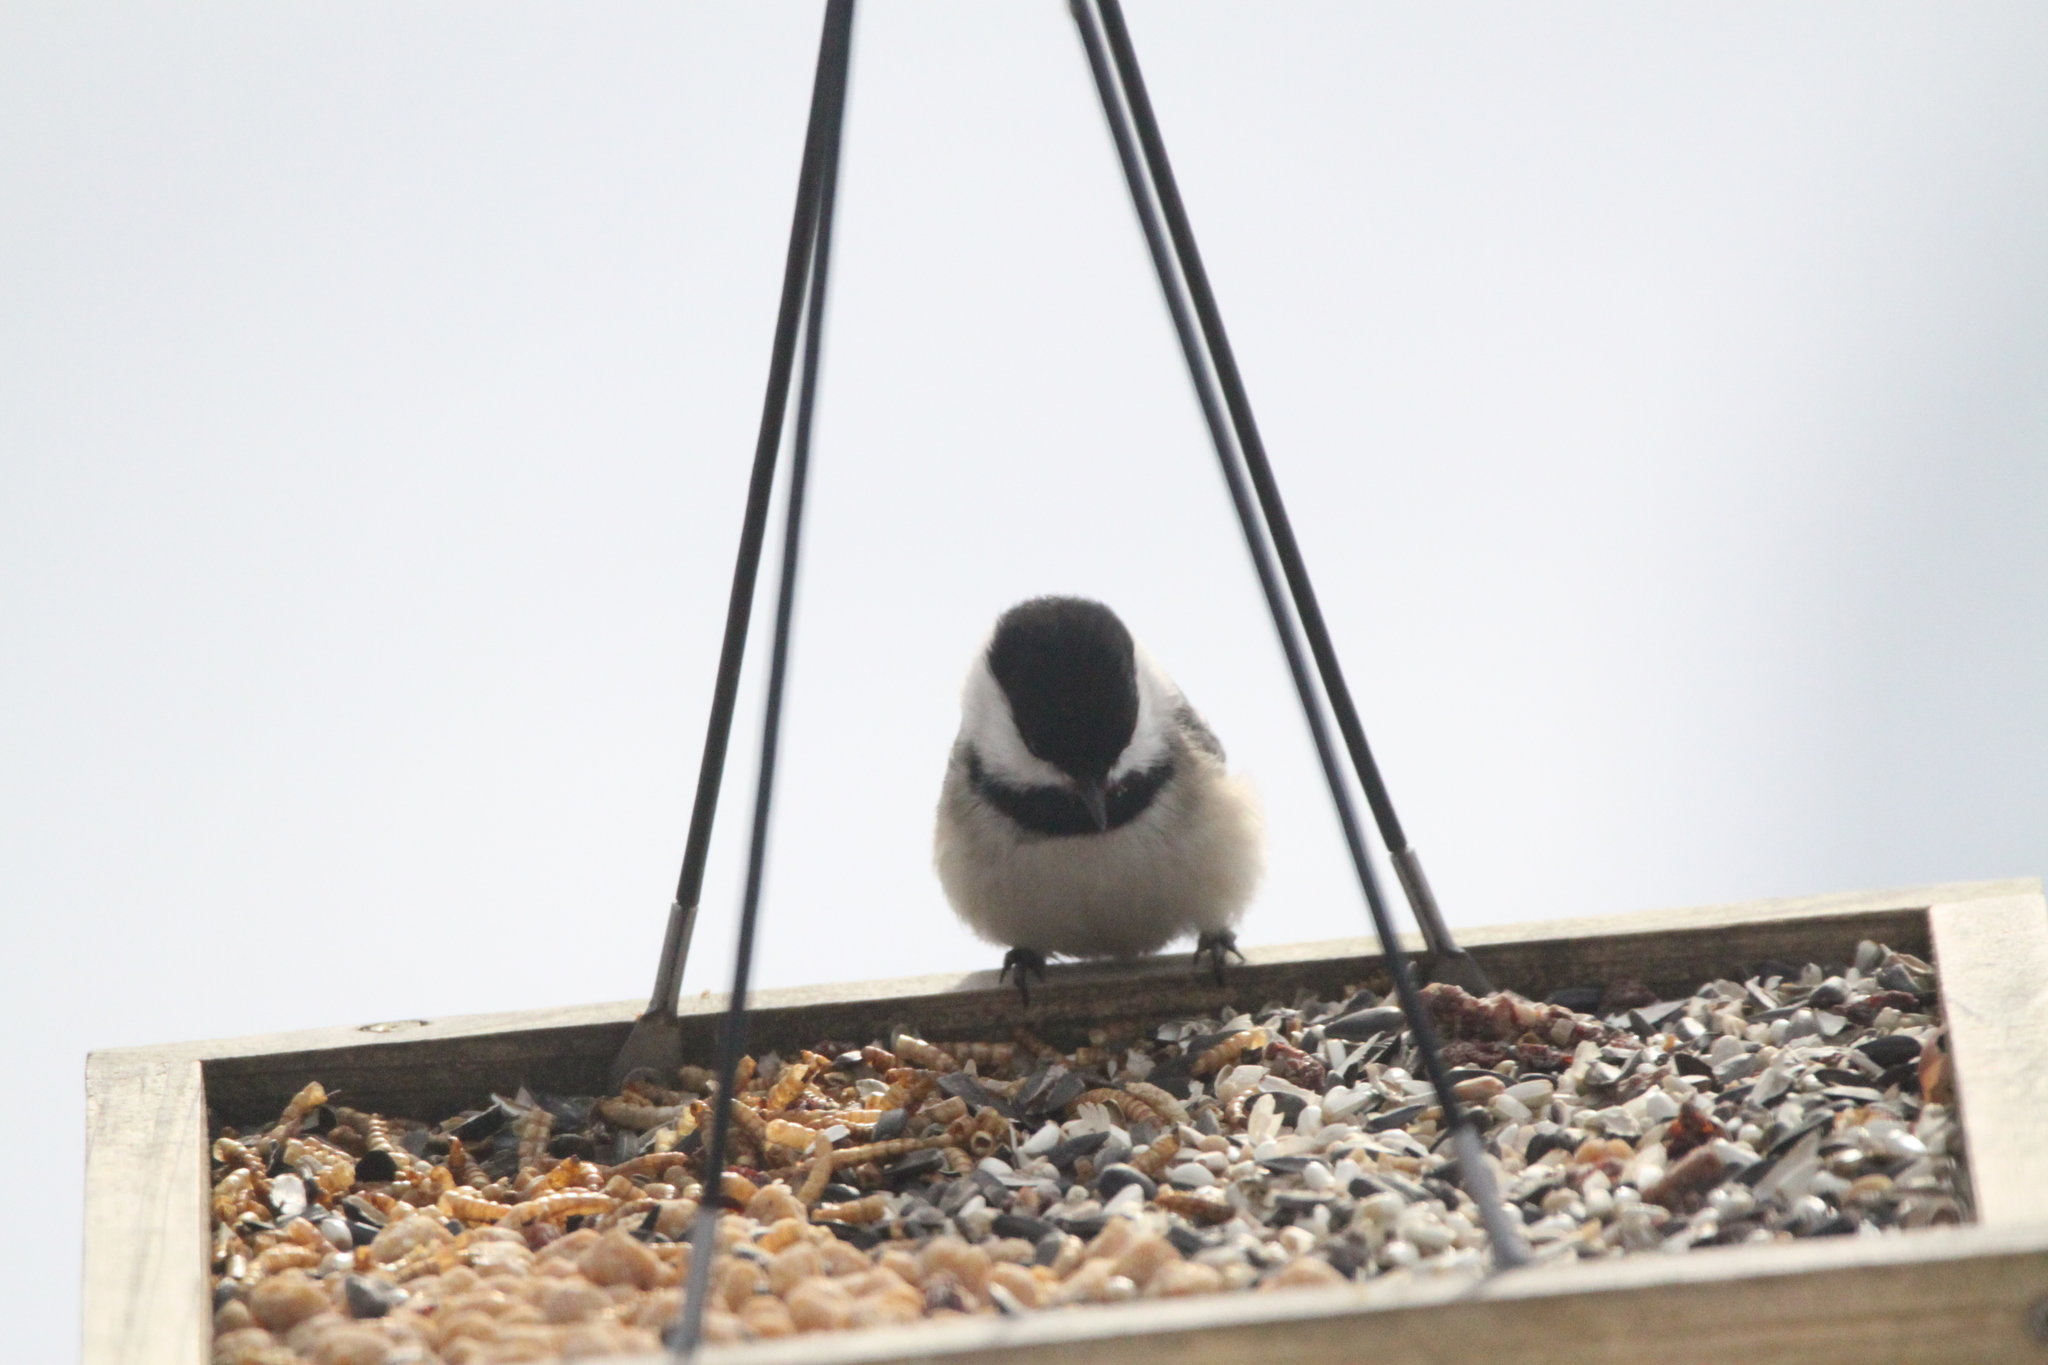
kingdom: Animalia
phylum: Chordata
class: Aves
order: Passeriformes
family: Paridae
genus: Poecile
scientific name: Poecile atricapillus
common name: Black-capped chickadee
